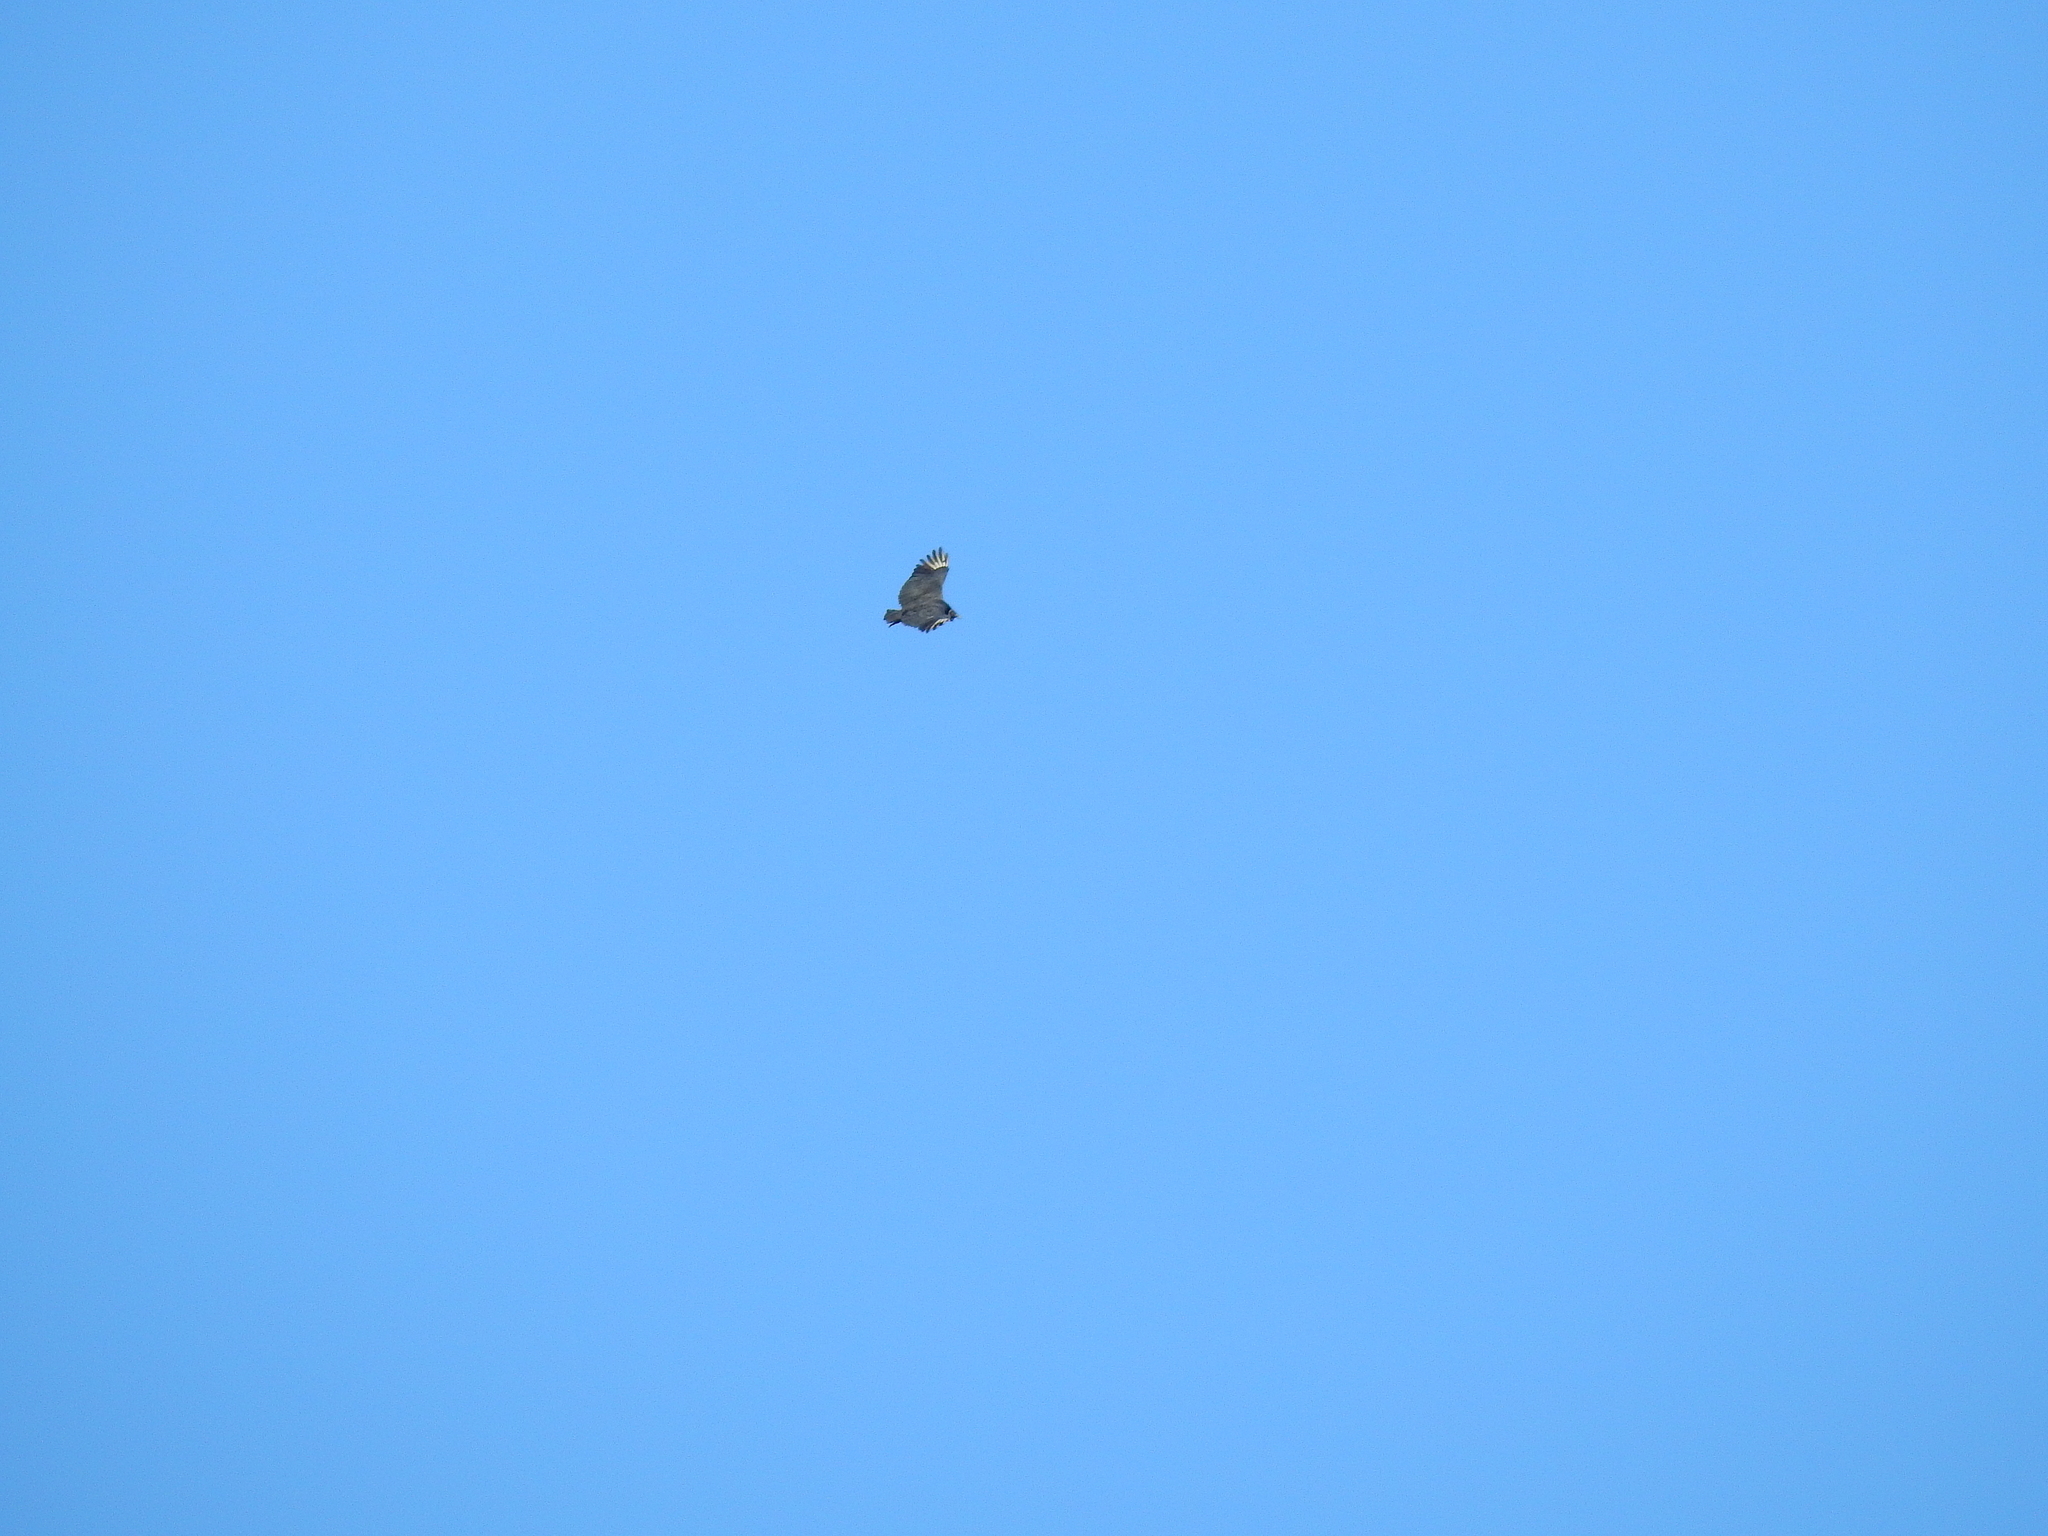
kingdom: Animalia
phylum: Chordata
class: Aves
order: Accipitriformes
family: Cathartidae
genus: Coragyps
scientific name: Coragyps atratus
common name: Black vulture
